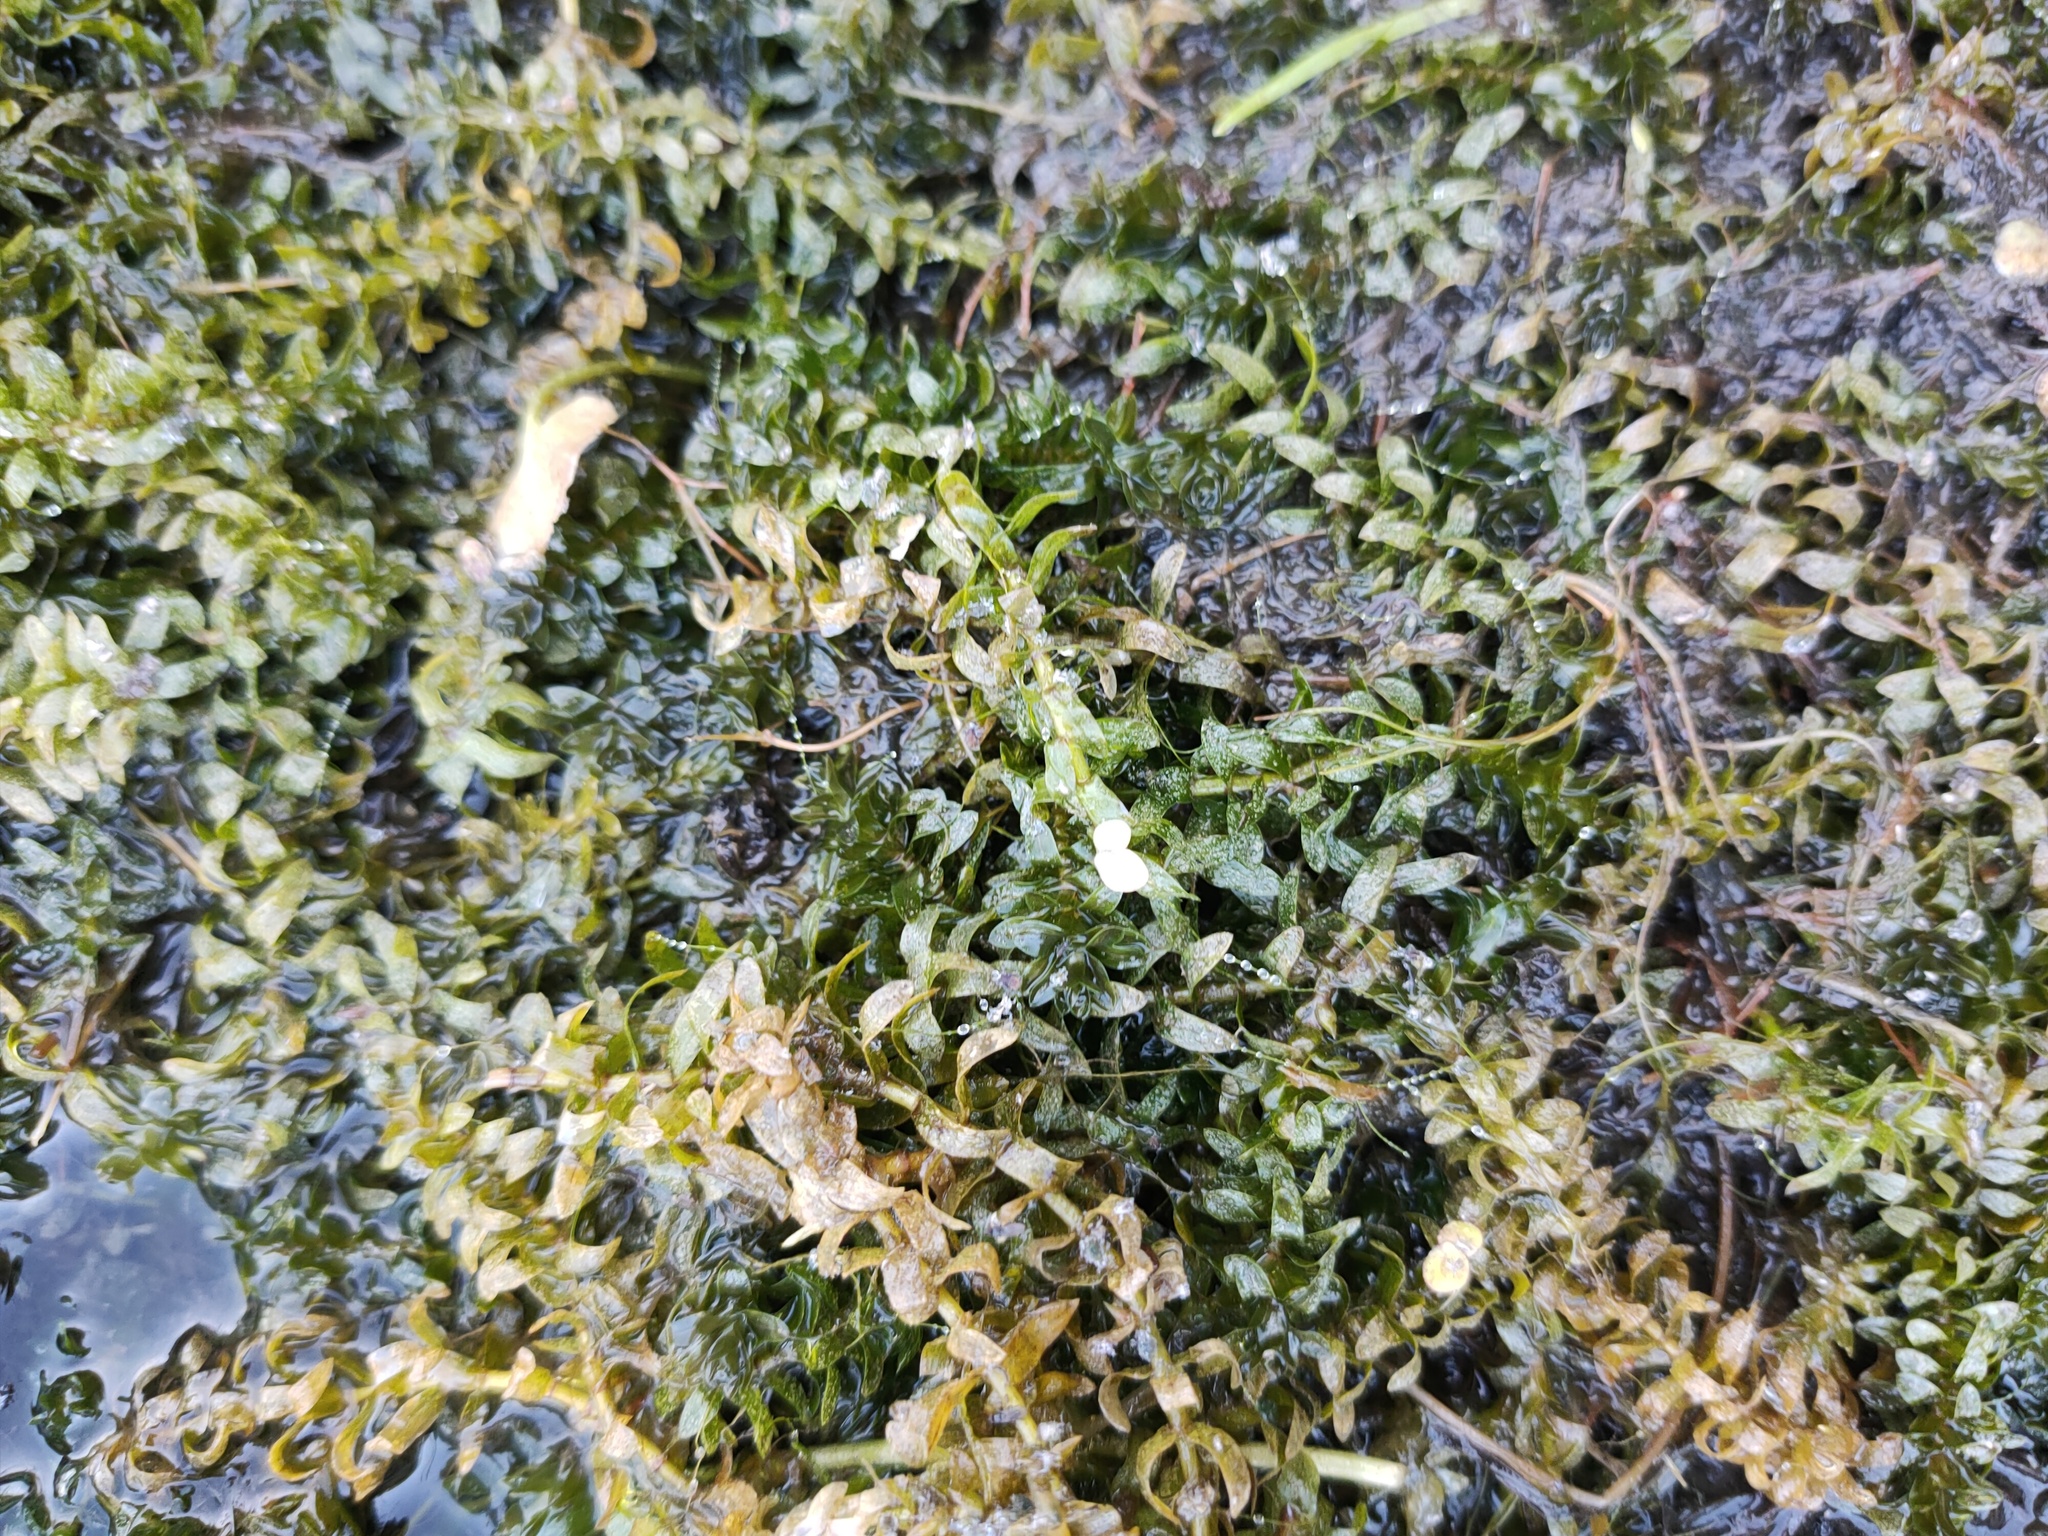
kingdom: Plantae
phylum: Tracheophyta
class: Liliopsida
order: Alismatales
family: Hydrocharitaceae
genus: Elodea
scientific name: Elodea canadensis
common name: Canadian waterweed
